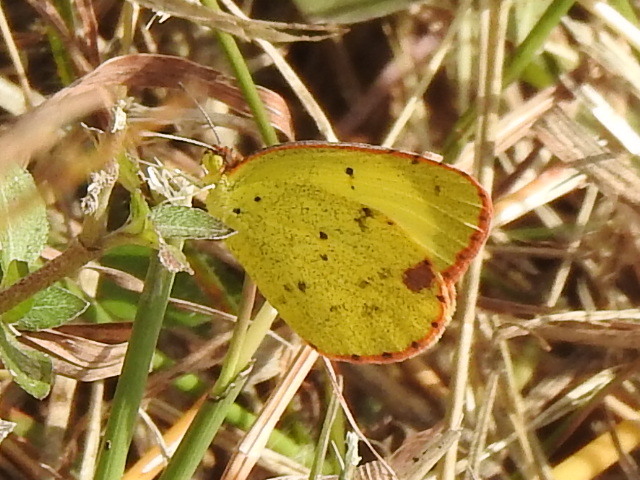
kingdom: Animalia
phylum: Arthropoda
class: Insecta
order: Lepidoptera
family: Pieridae
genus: Pyrisitia
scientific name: Pyrisitia lisa
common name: Little yellow
